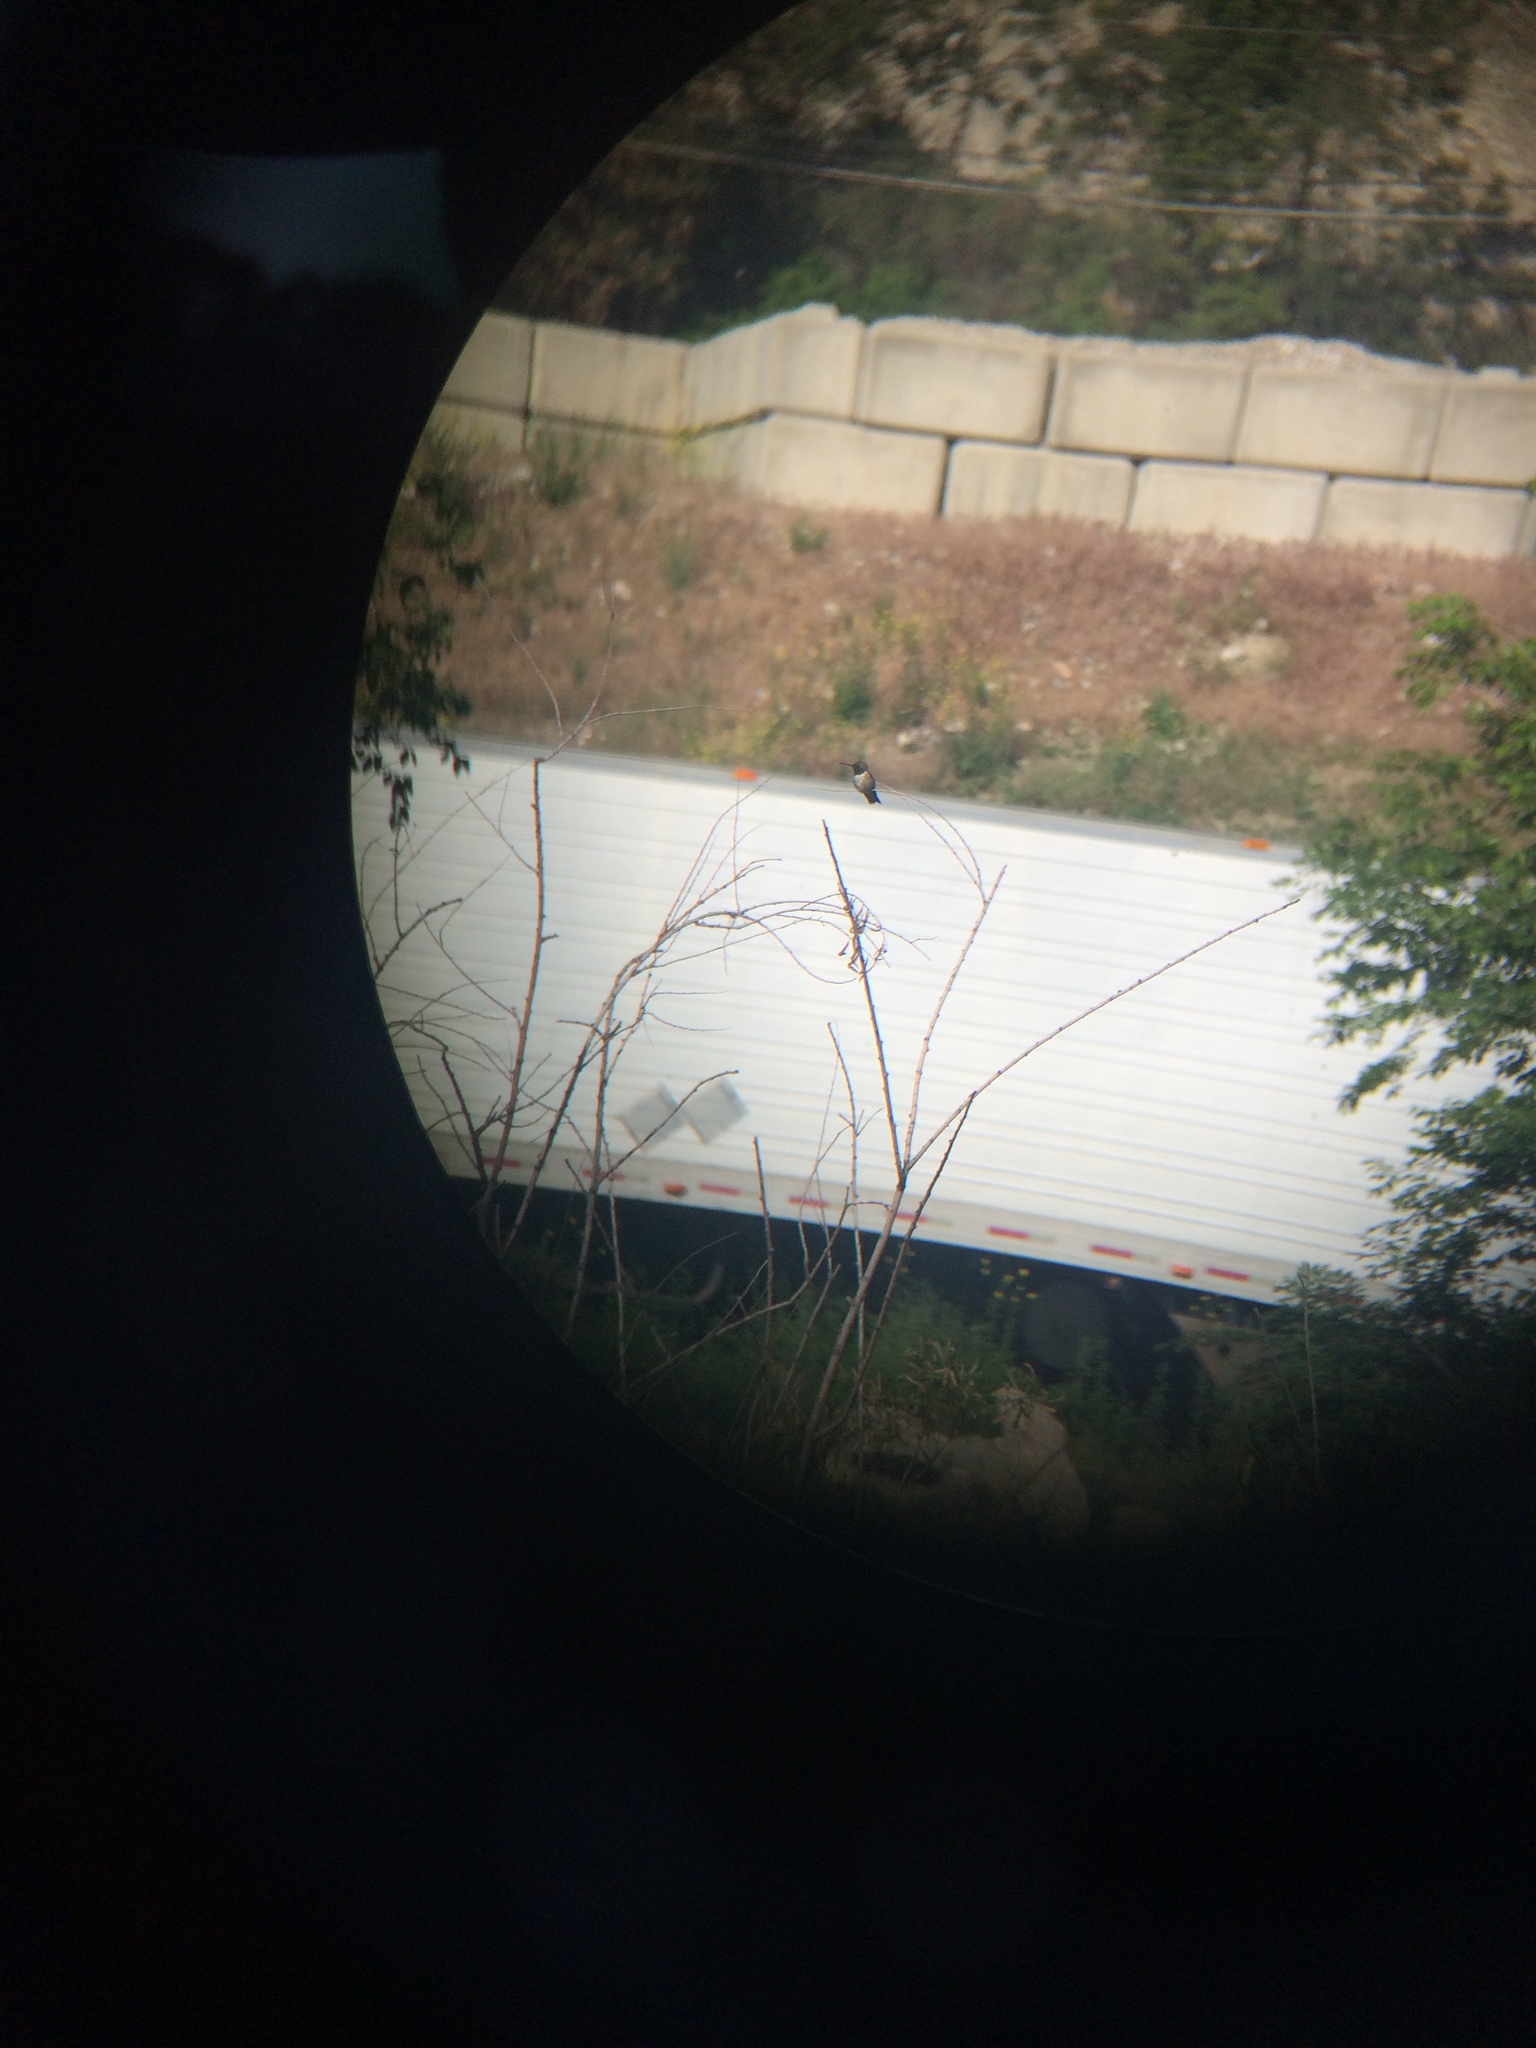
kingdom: Animalia
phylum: Chordata
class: Aves
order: Apodiformes
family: Trochilidae
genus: Archilochus
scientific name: Archilochus alexandri
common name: Black-chinned hummingbird
